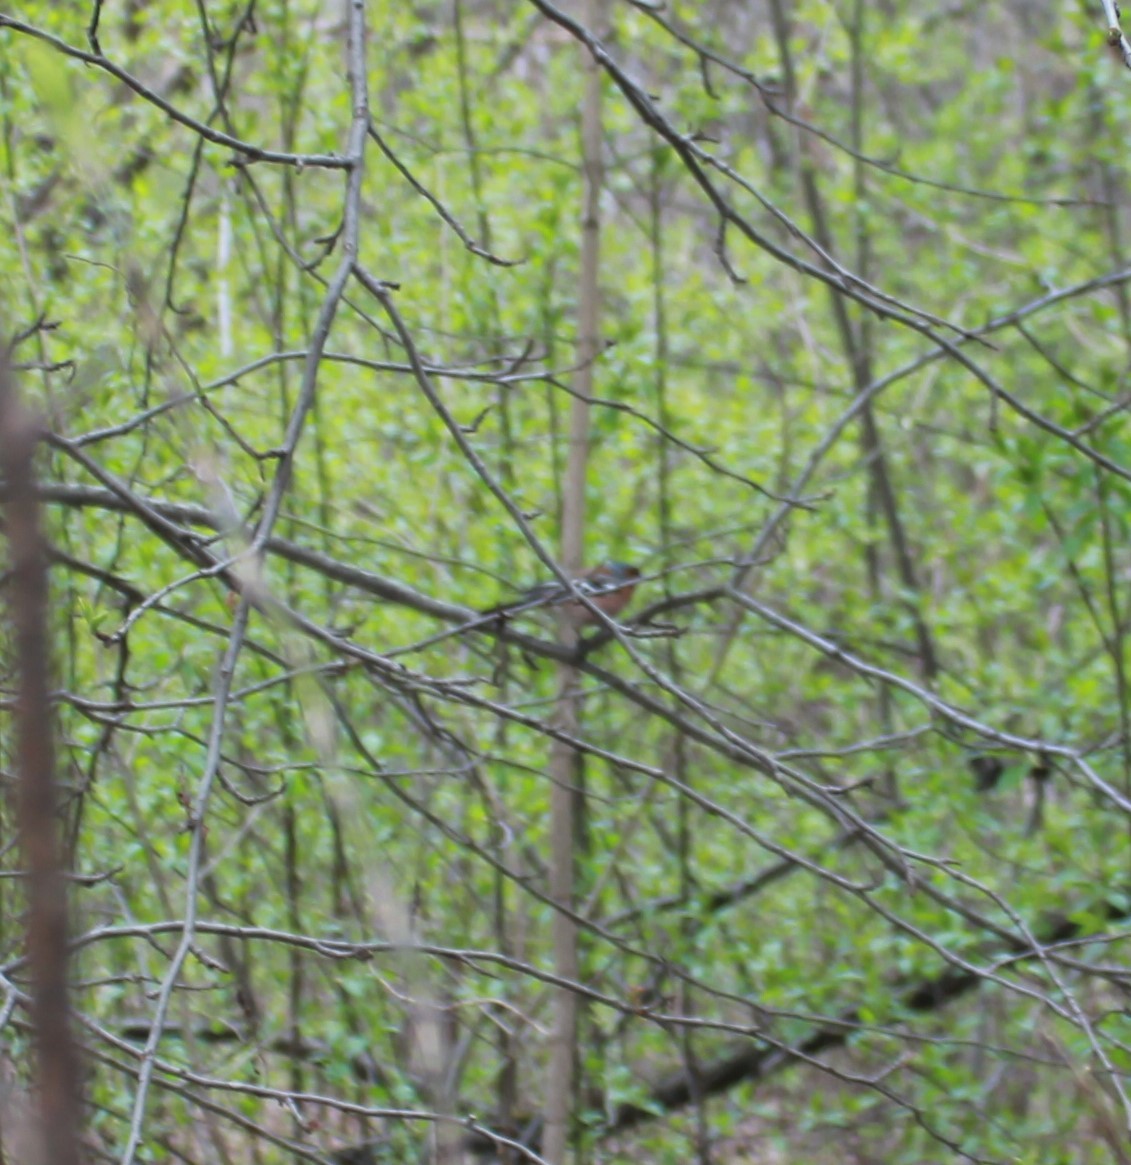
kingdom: Animalia
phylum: Chordata
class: Aves
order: Passeriformes
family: Fringillidae
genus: Fringilla
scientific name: Fringilla coelebs
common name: Common chaffinch
